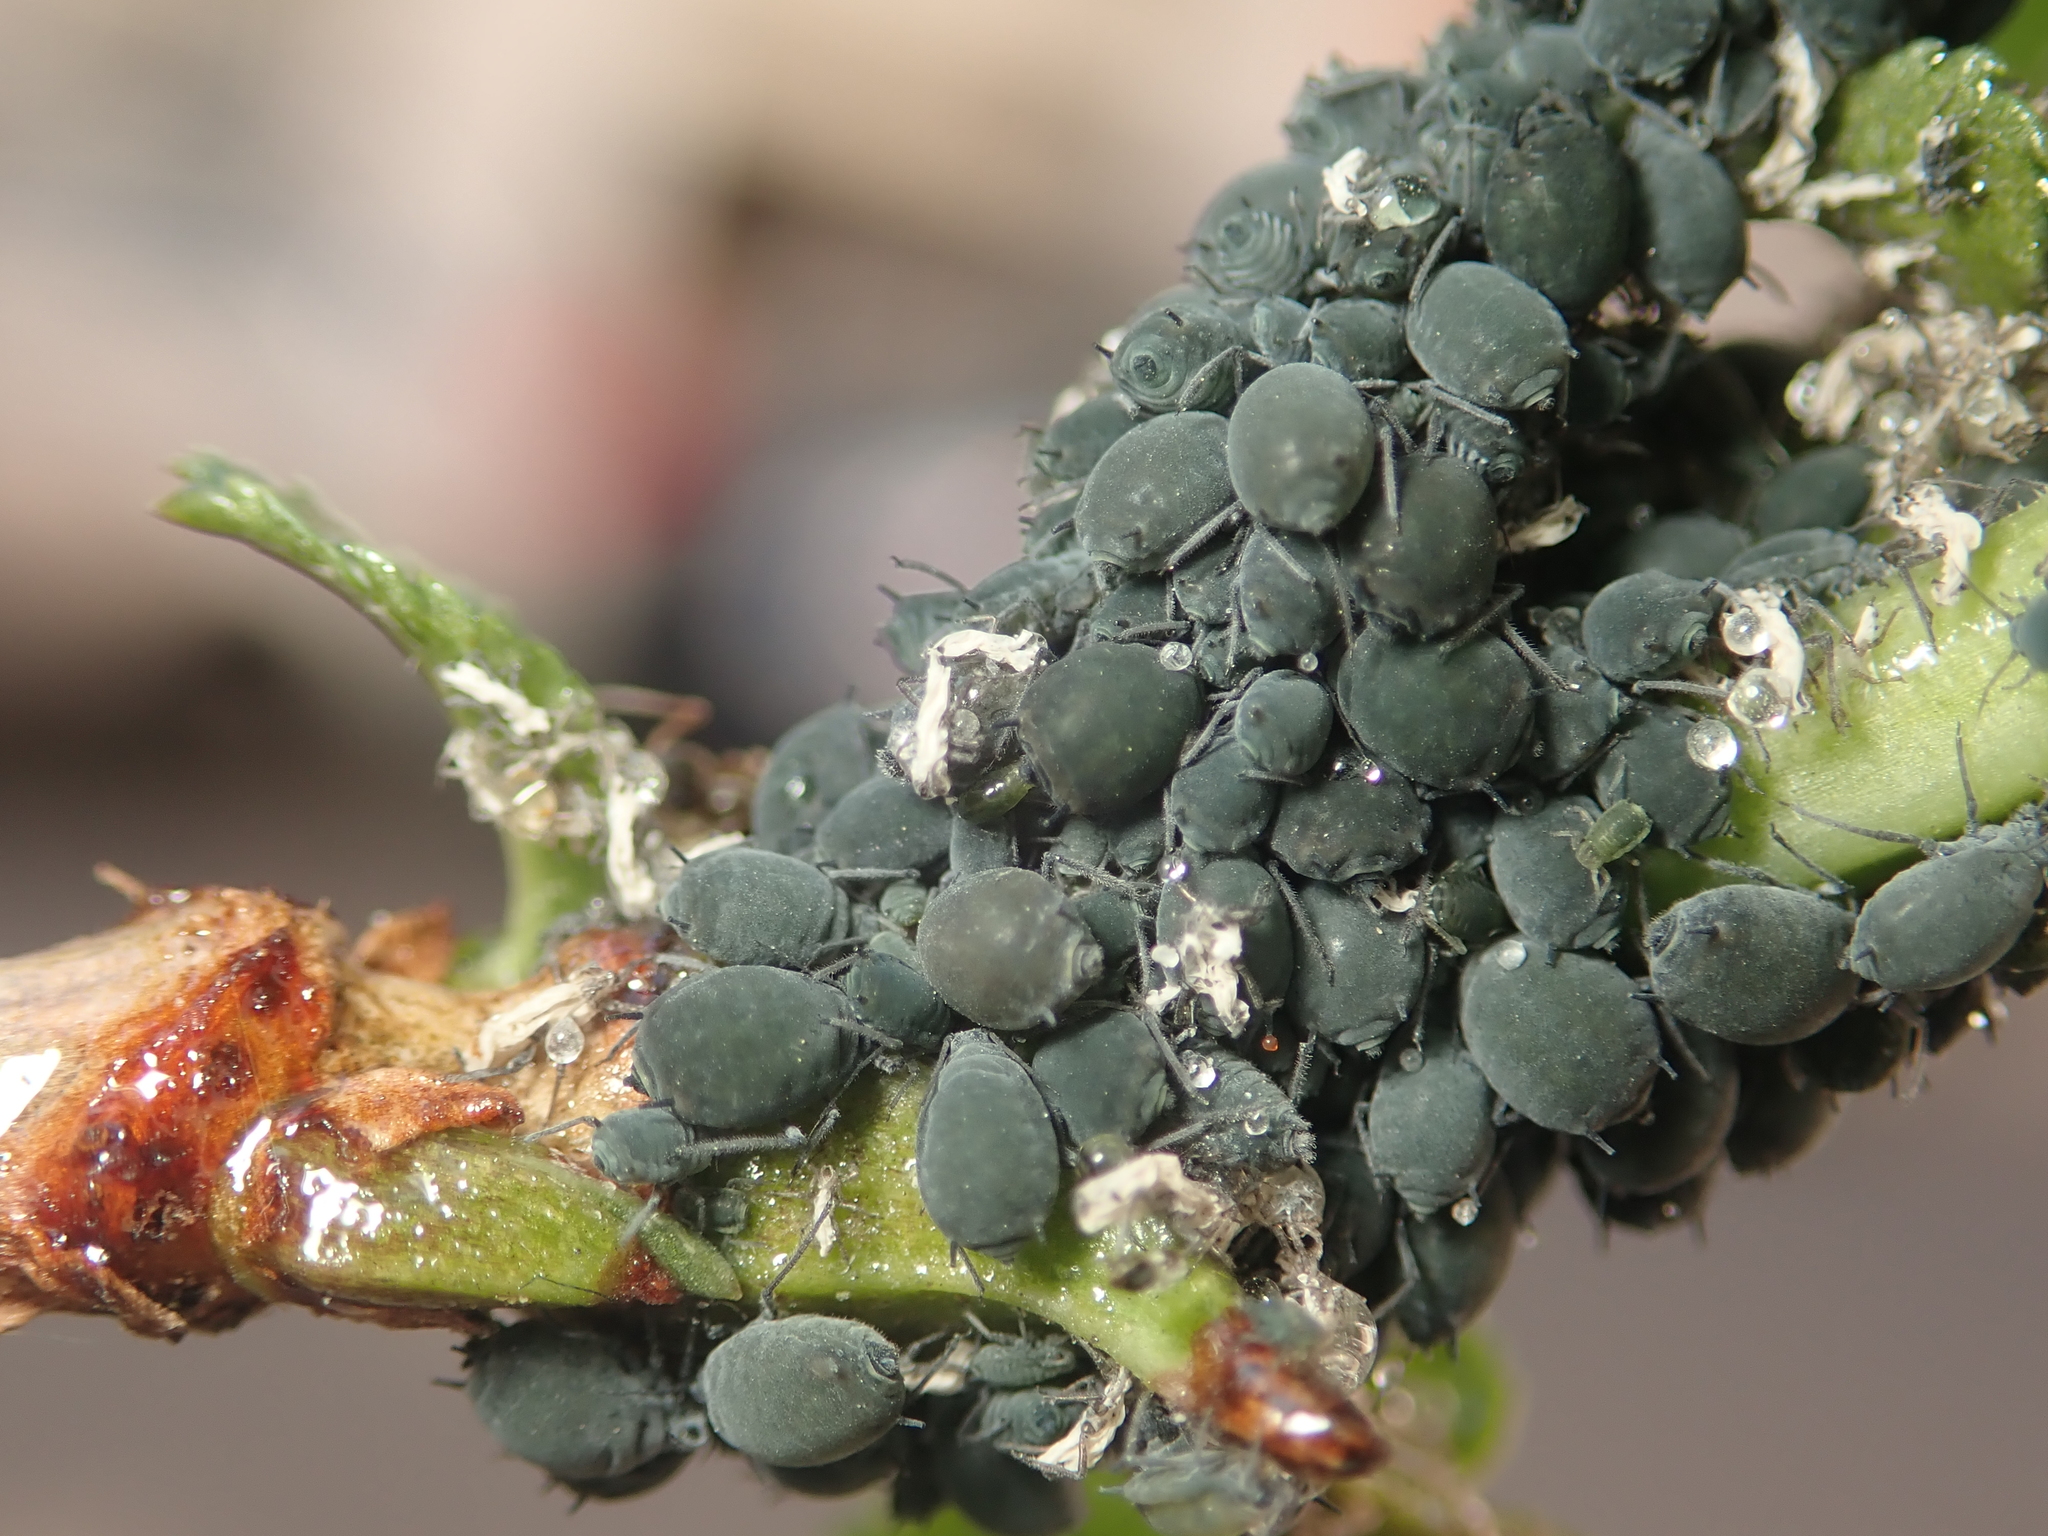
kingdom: Animalia
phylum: Arthropoda
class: Insecta
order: Hemiptera
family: Aphididae
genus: Aphis
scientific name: Aphis sambuci
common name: Elder aphid
